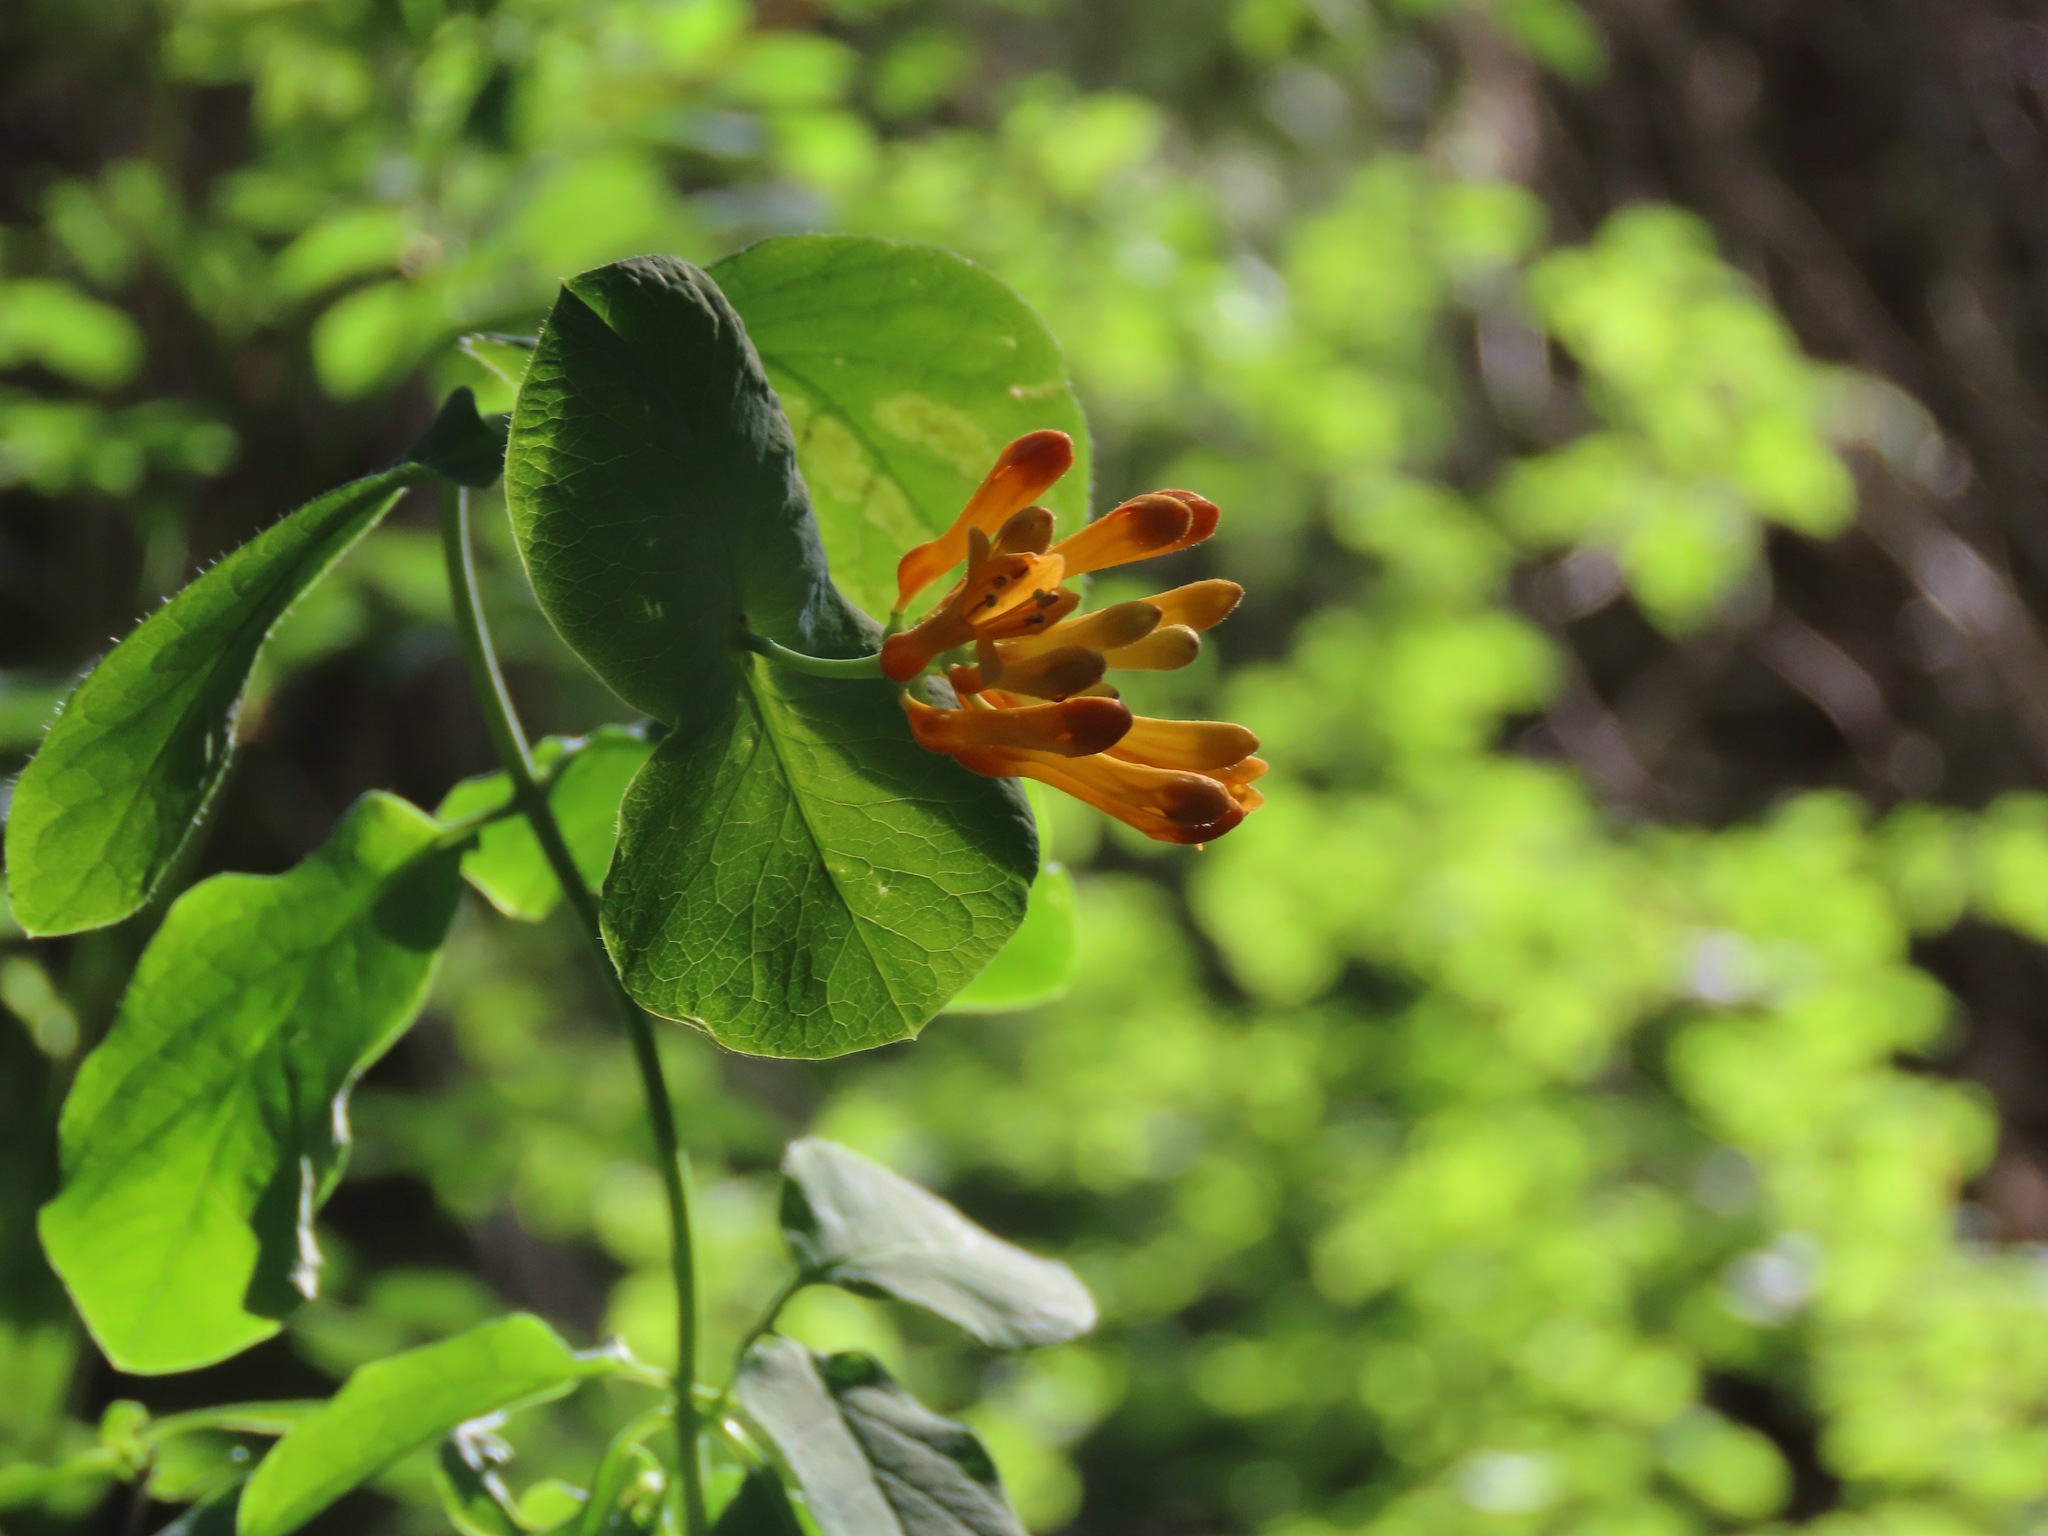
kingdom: Plantae
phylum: Tracheophyta
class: Magnoliopsida
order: Dipsacales
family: Caprifoliaceae
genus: Lonicera
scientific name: Lonicera ciliosa
